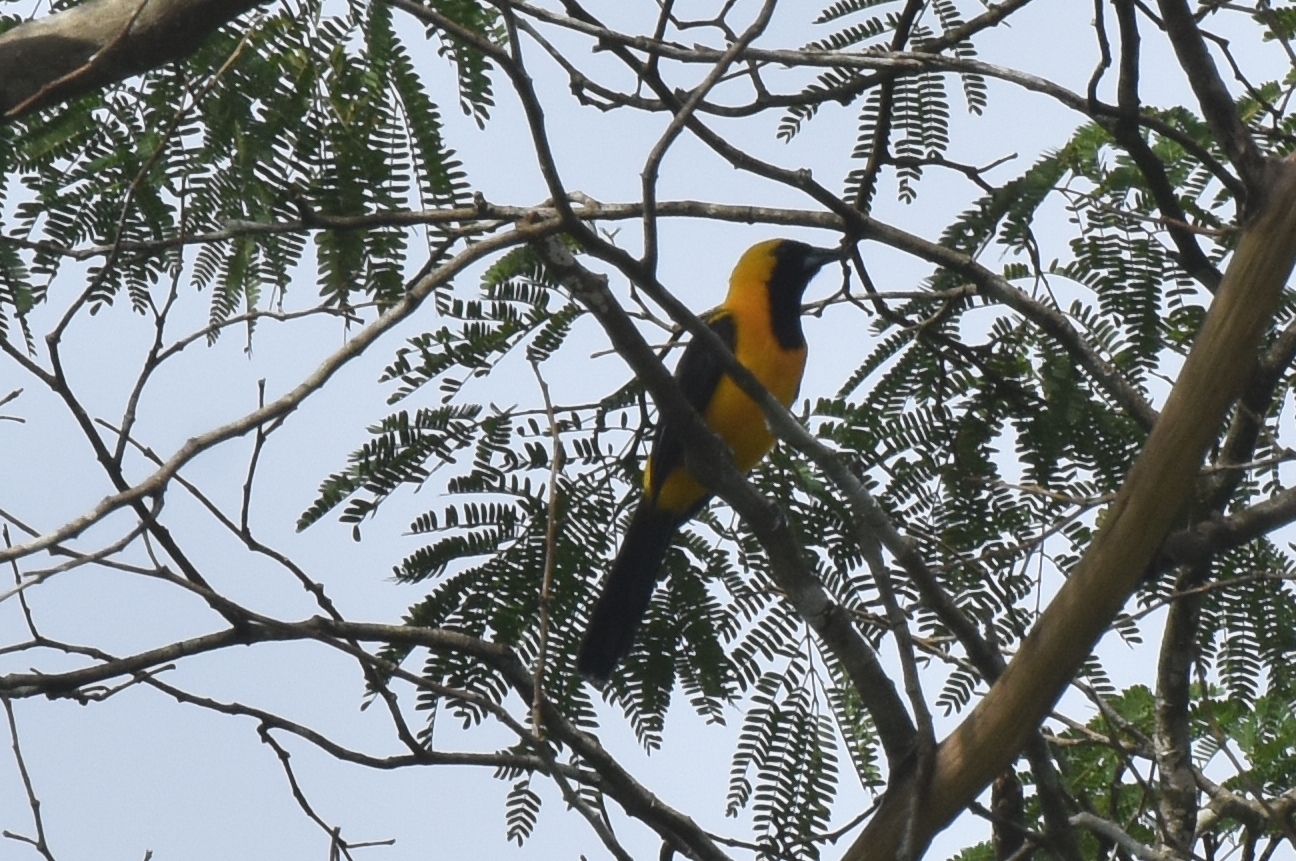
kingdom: Animalia
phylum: Chordata
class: Aves
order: Passeriformes
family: Icteridae
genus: Icterus
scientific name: Icterus chrysater
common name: Yellow-backed oriole
